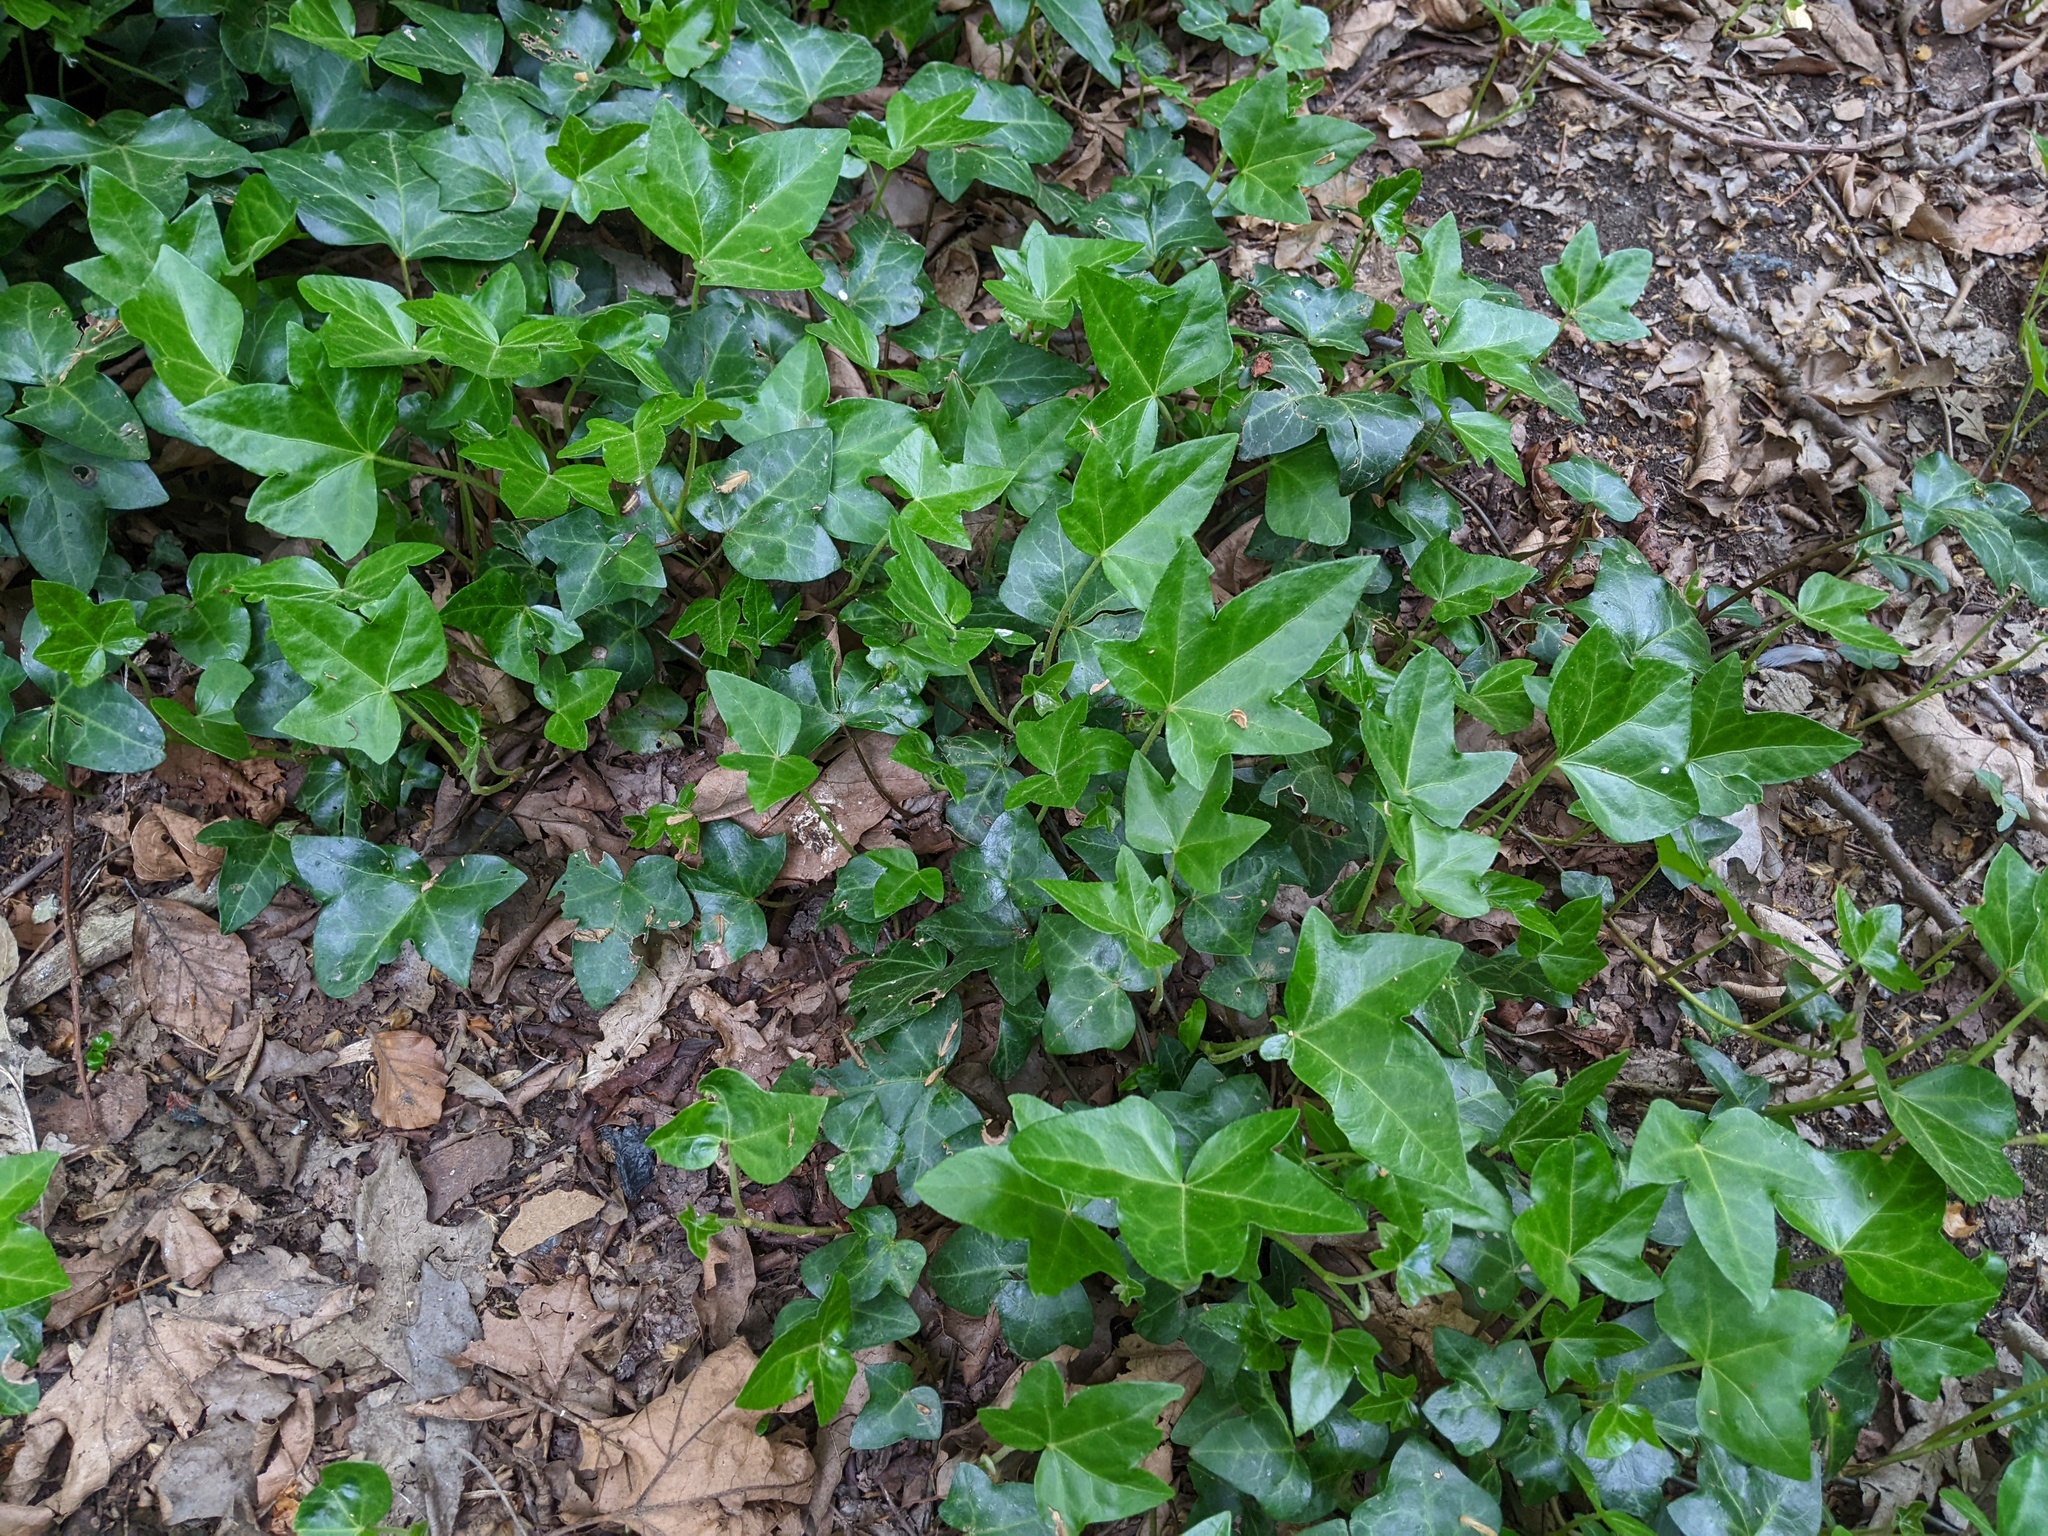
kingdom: Plantae
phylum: Tracheophyta
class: Magnoliopsida
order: Apiales
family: Araliaceae
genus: Hedera
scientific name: Hedera helix
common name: Ivy
